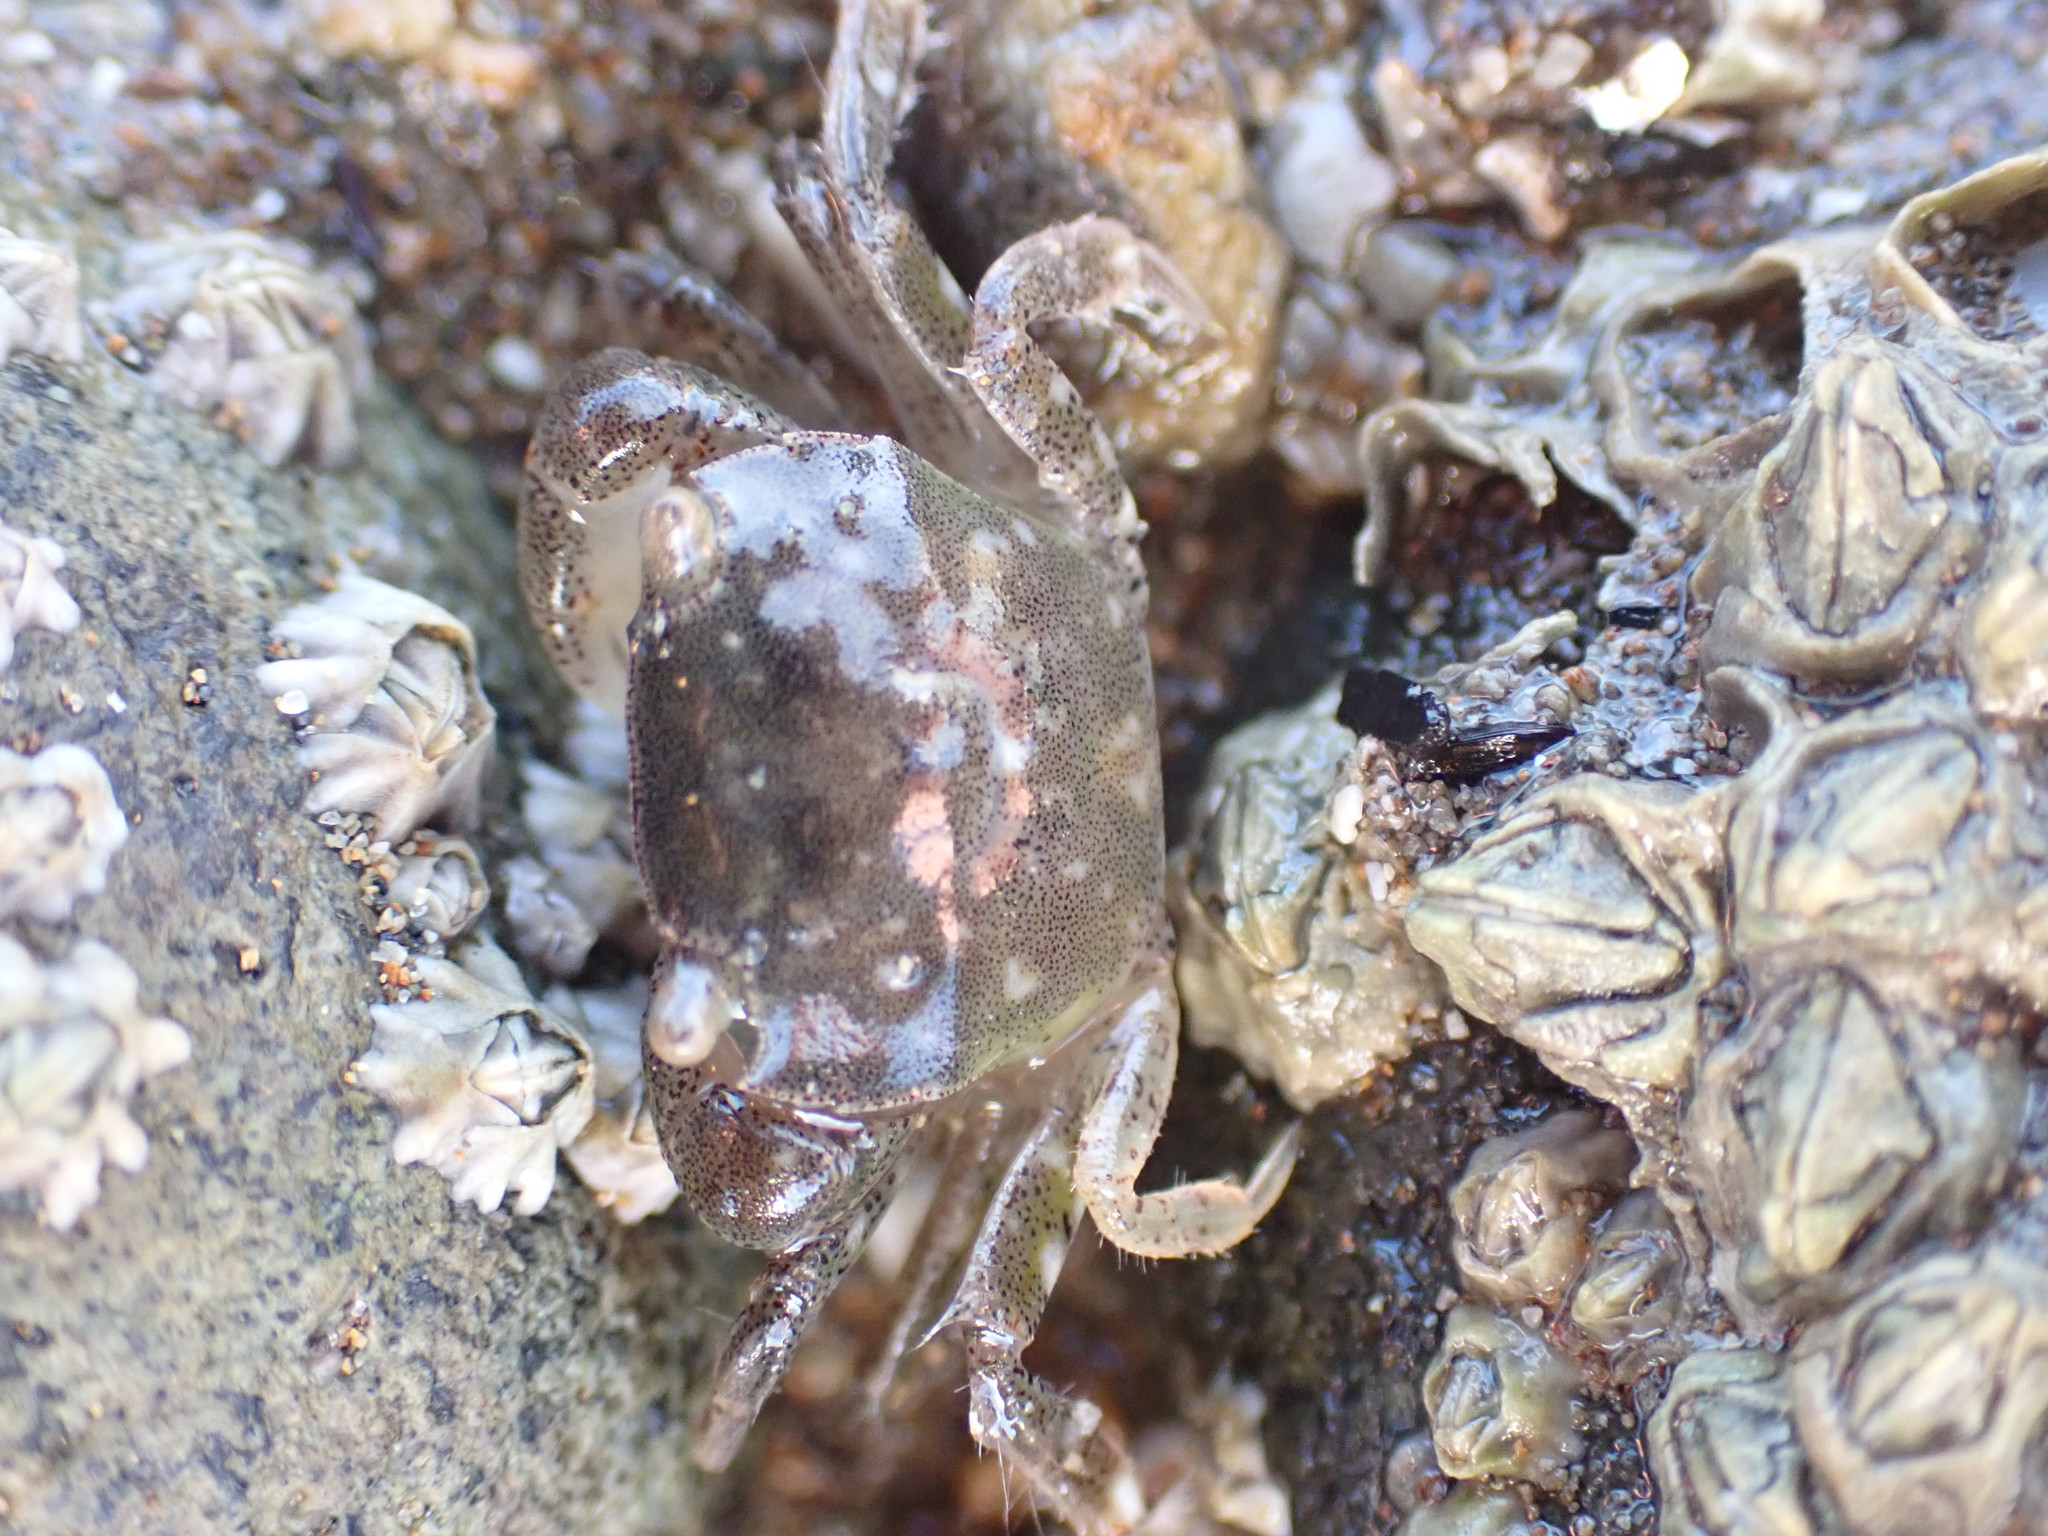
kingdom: Animalia
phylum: Arthropoda
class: Malacostraca
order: Decapoda
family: Varunidae
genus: Hemigrapsus
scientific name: Hemigrapsus crenulatus
